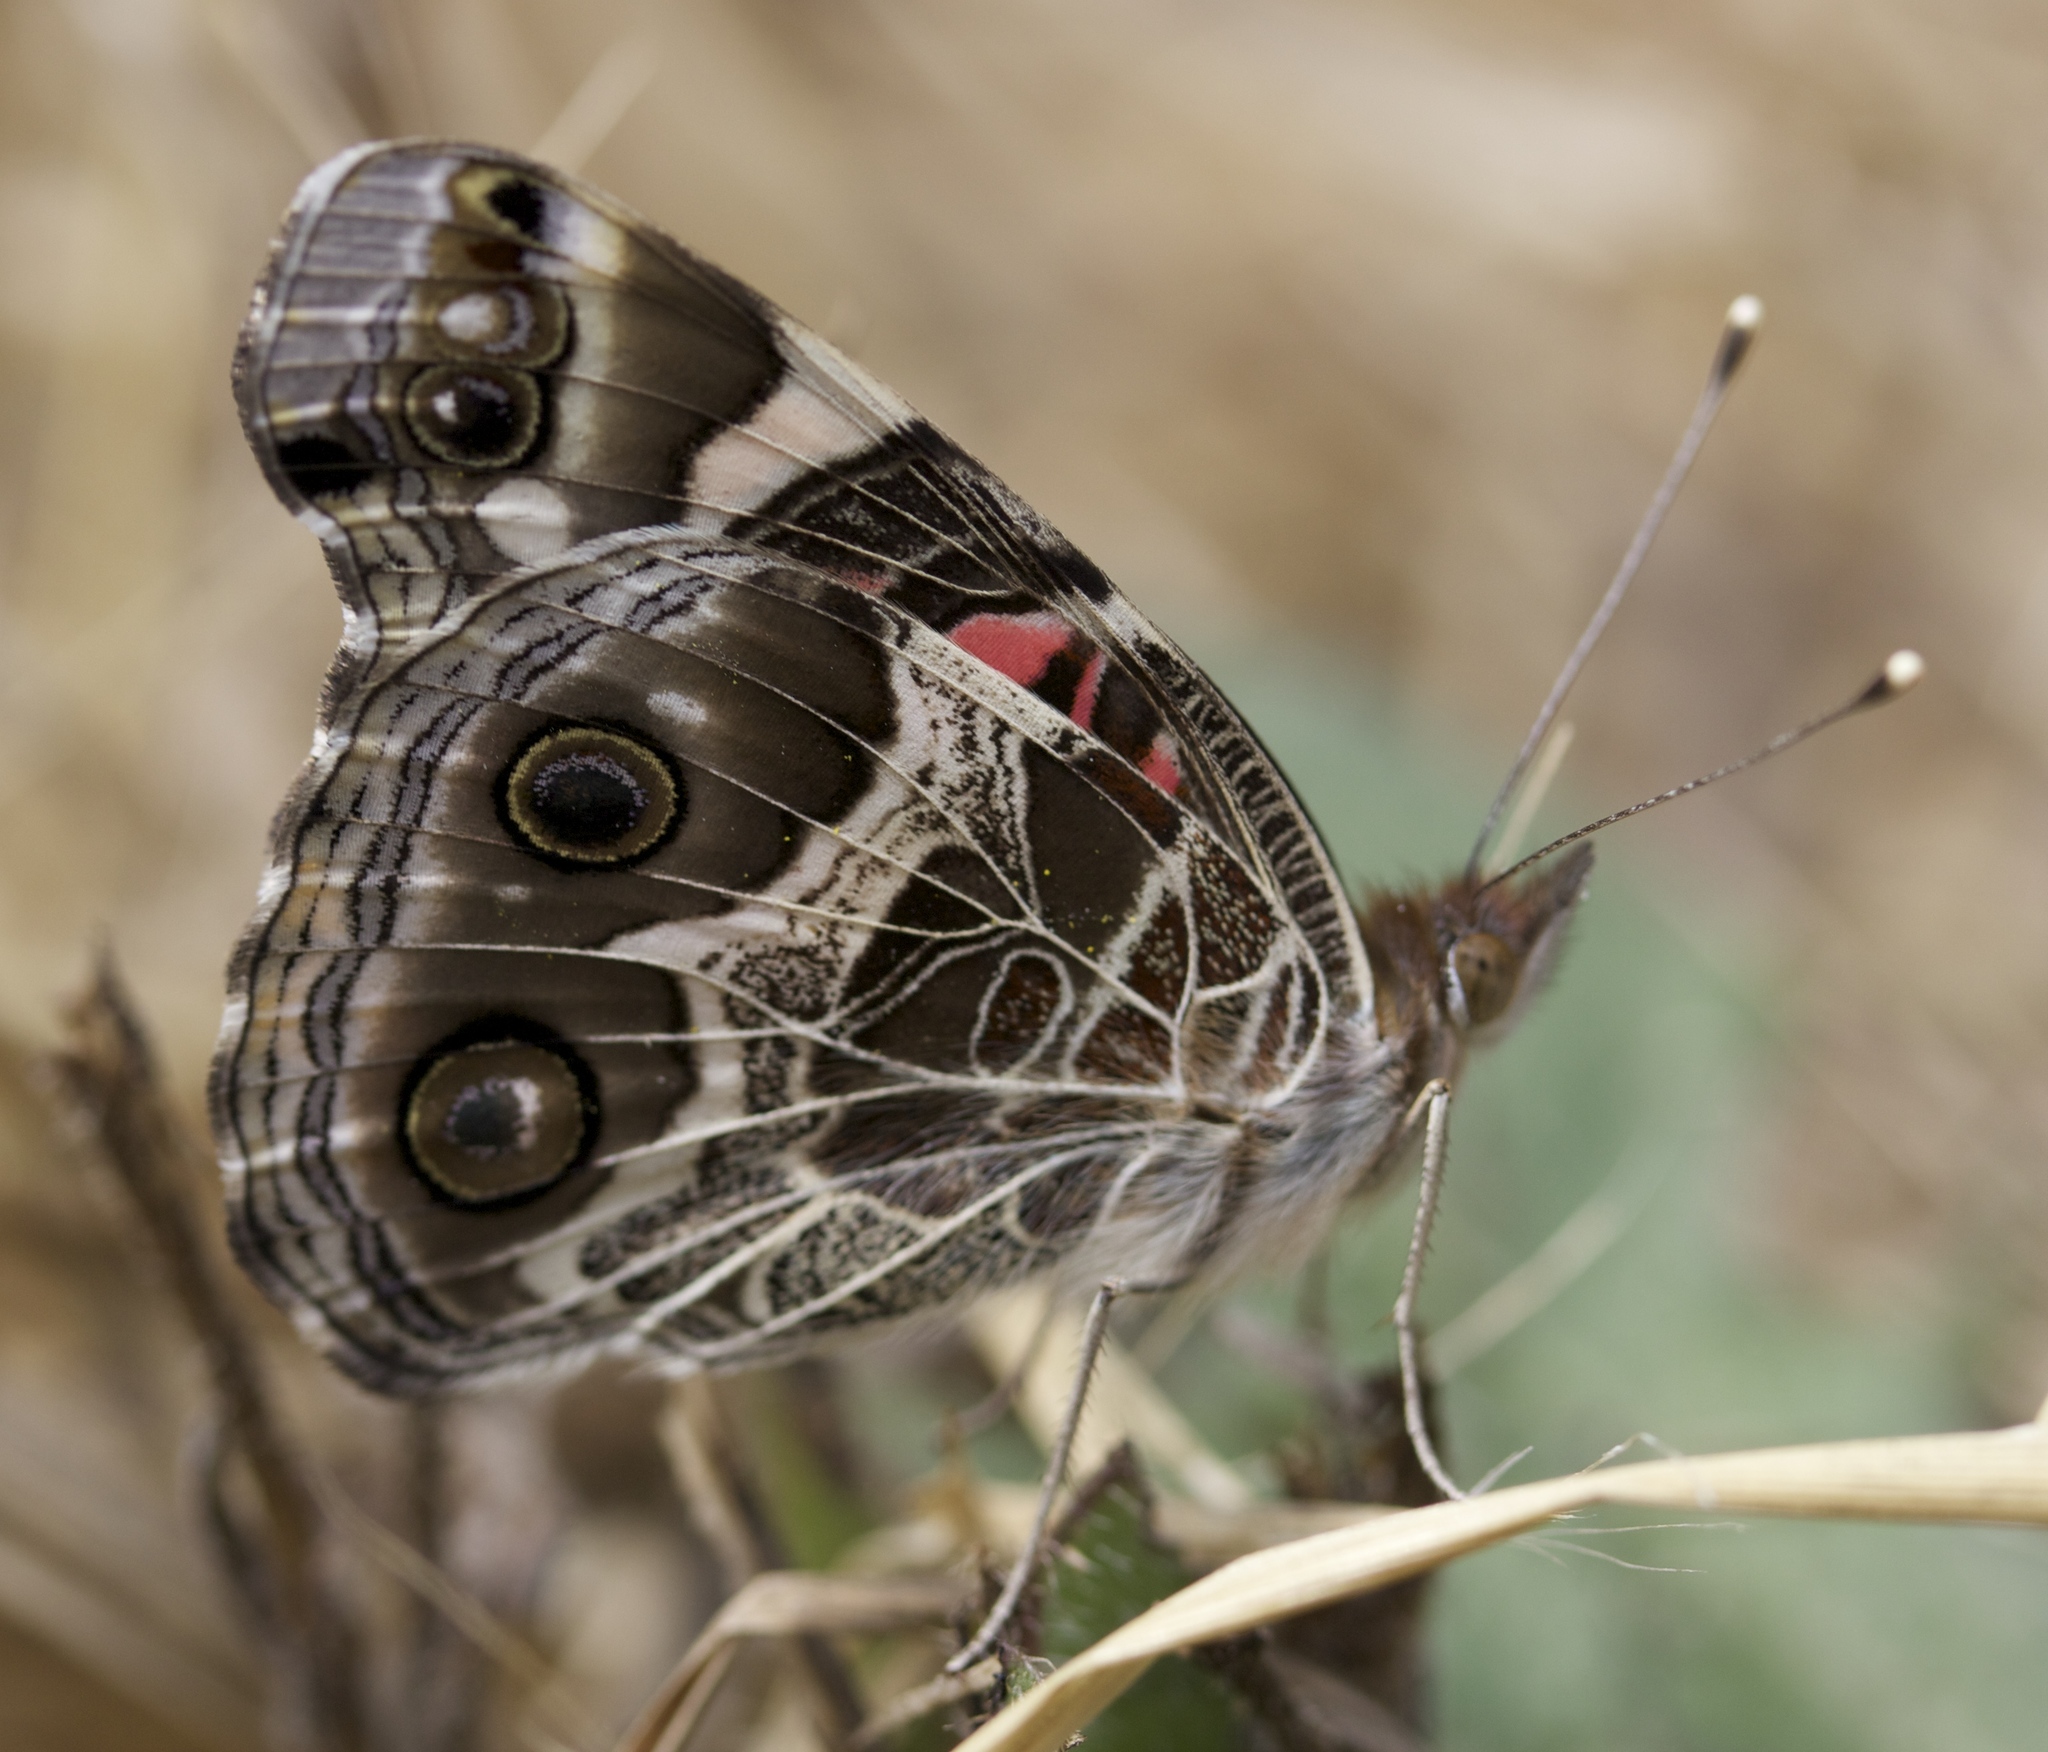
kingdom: Animalia
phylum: Arthropoda
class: Insecta
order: Lepidoptera
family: Nymphalidae
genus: Vanessa
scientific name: Vanessa virginiensis
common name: American lady
